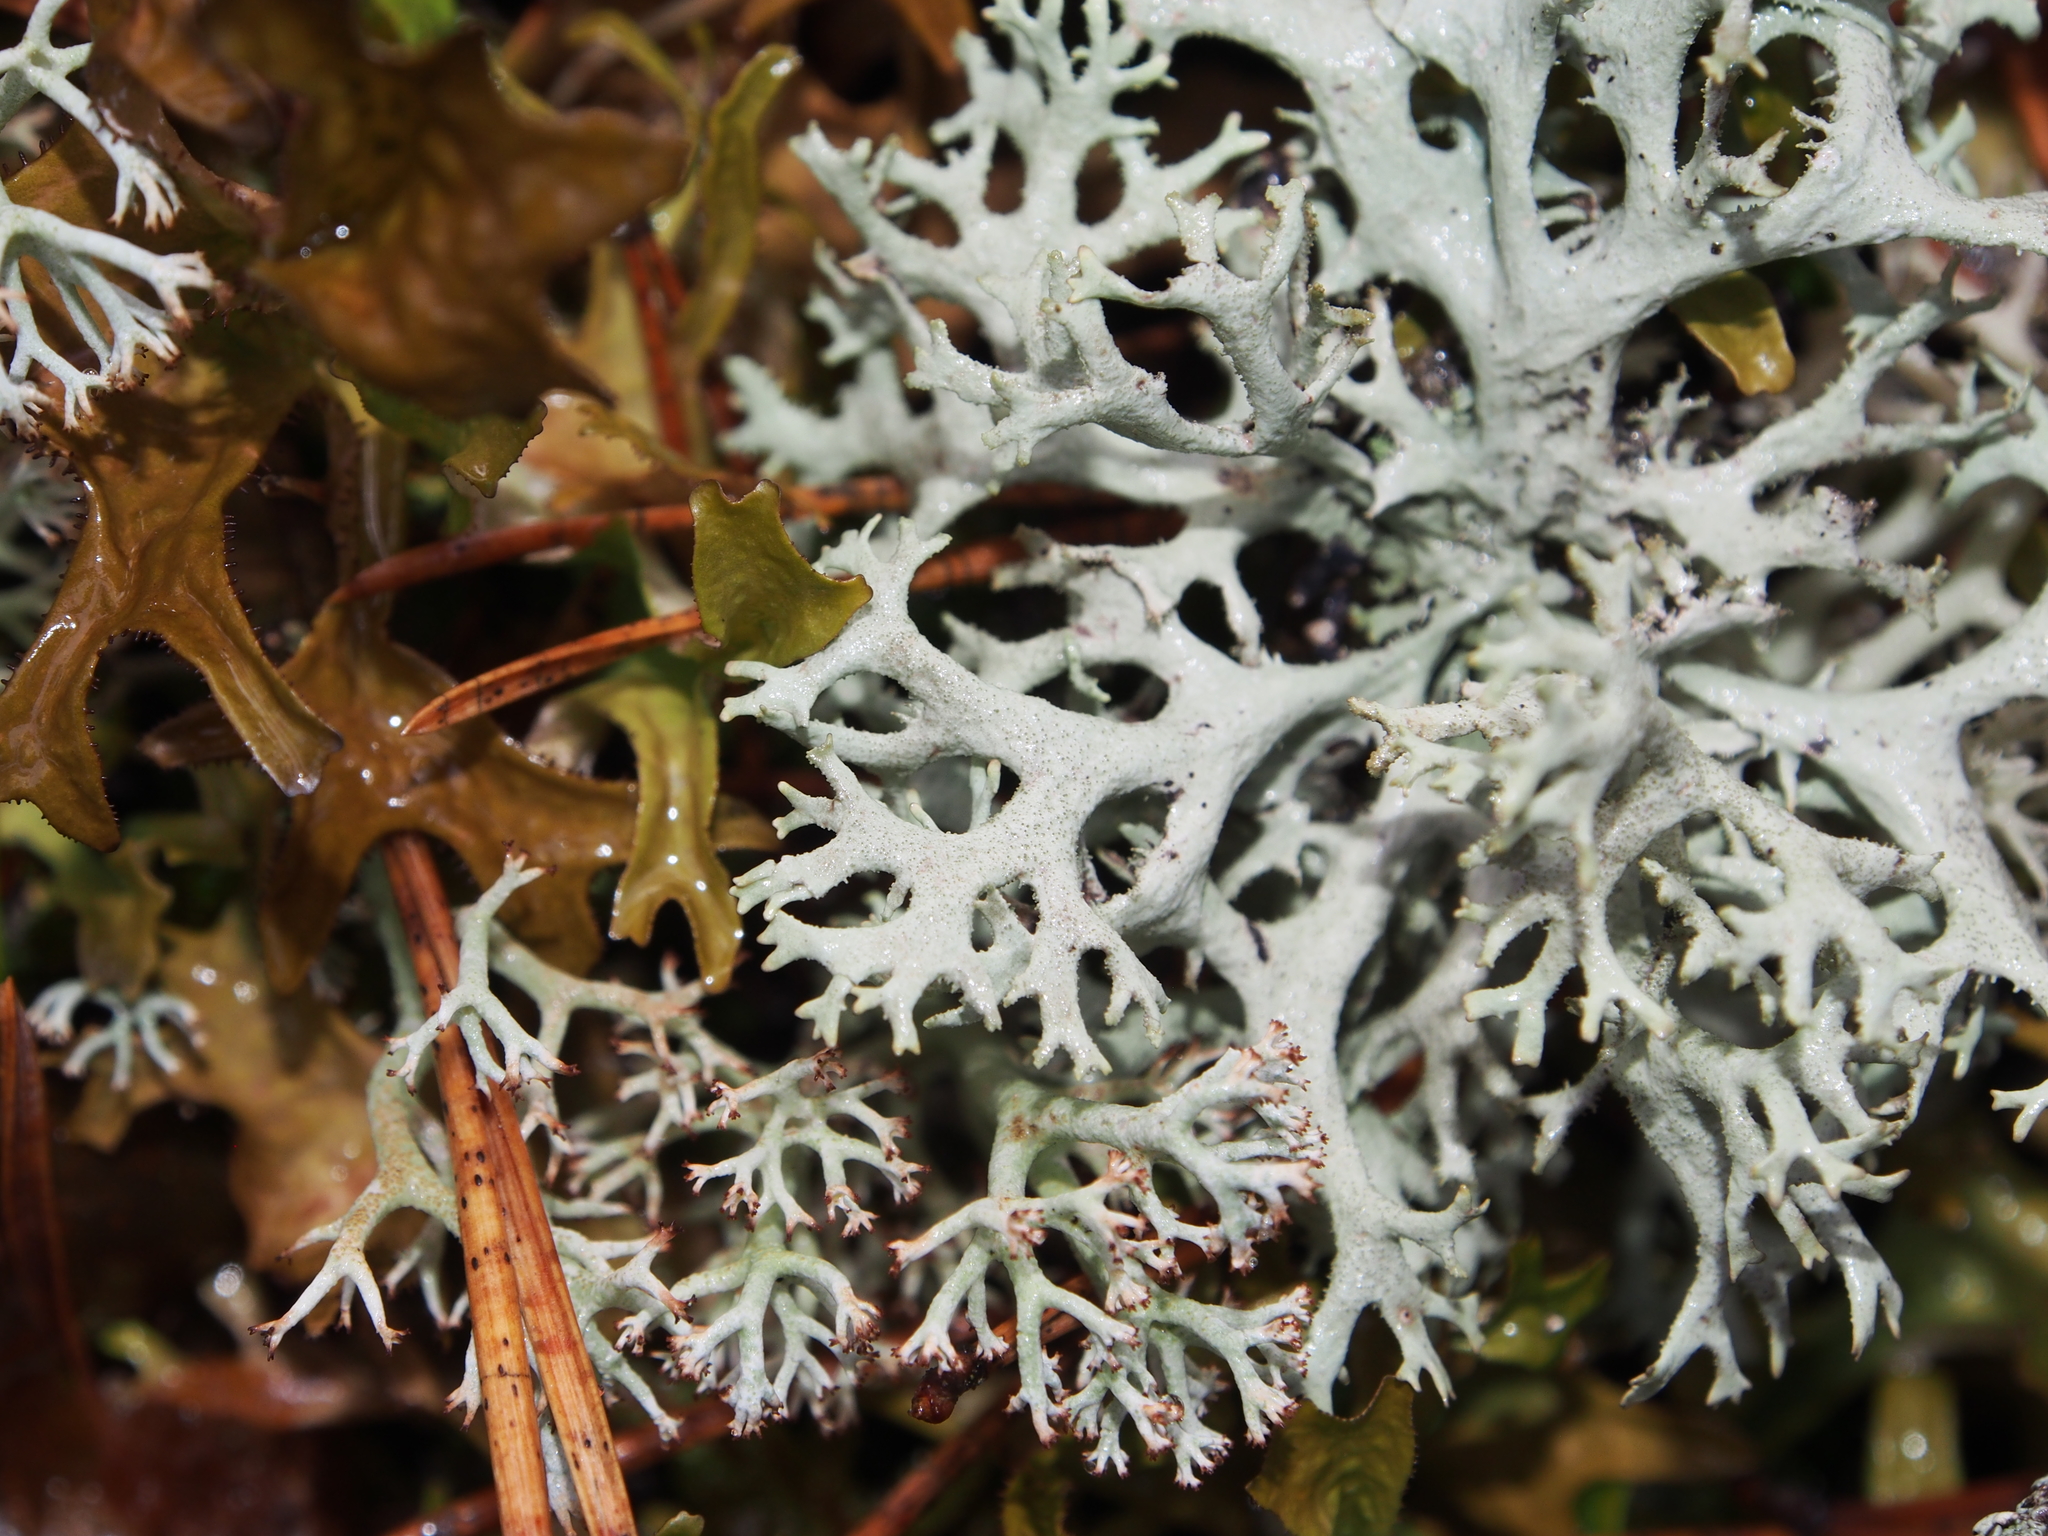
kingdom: Fungi
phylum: Ascomycota
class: Lecanoromycetes
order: Lecanorales
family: Parmeliaceae
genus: Pseudevernia
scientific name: Pseudevernia furfuracea
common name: Tree moss
